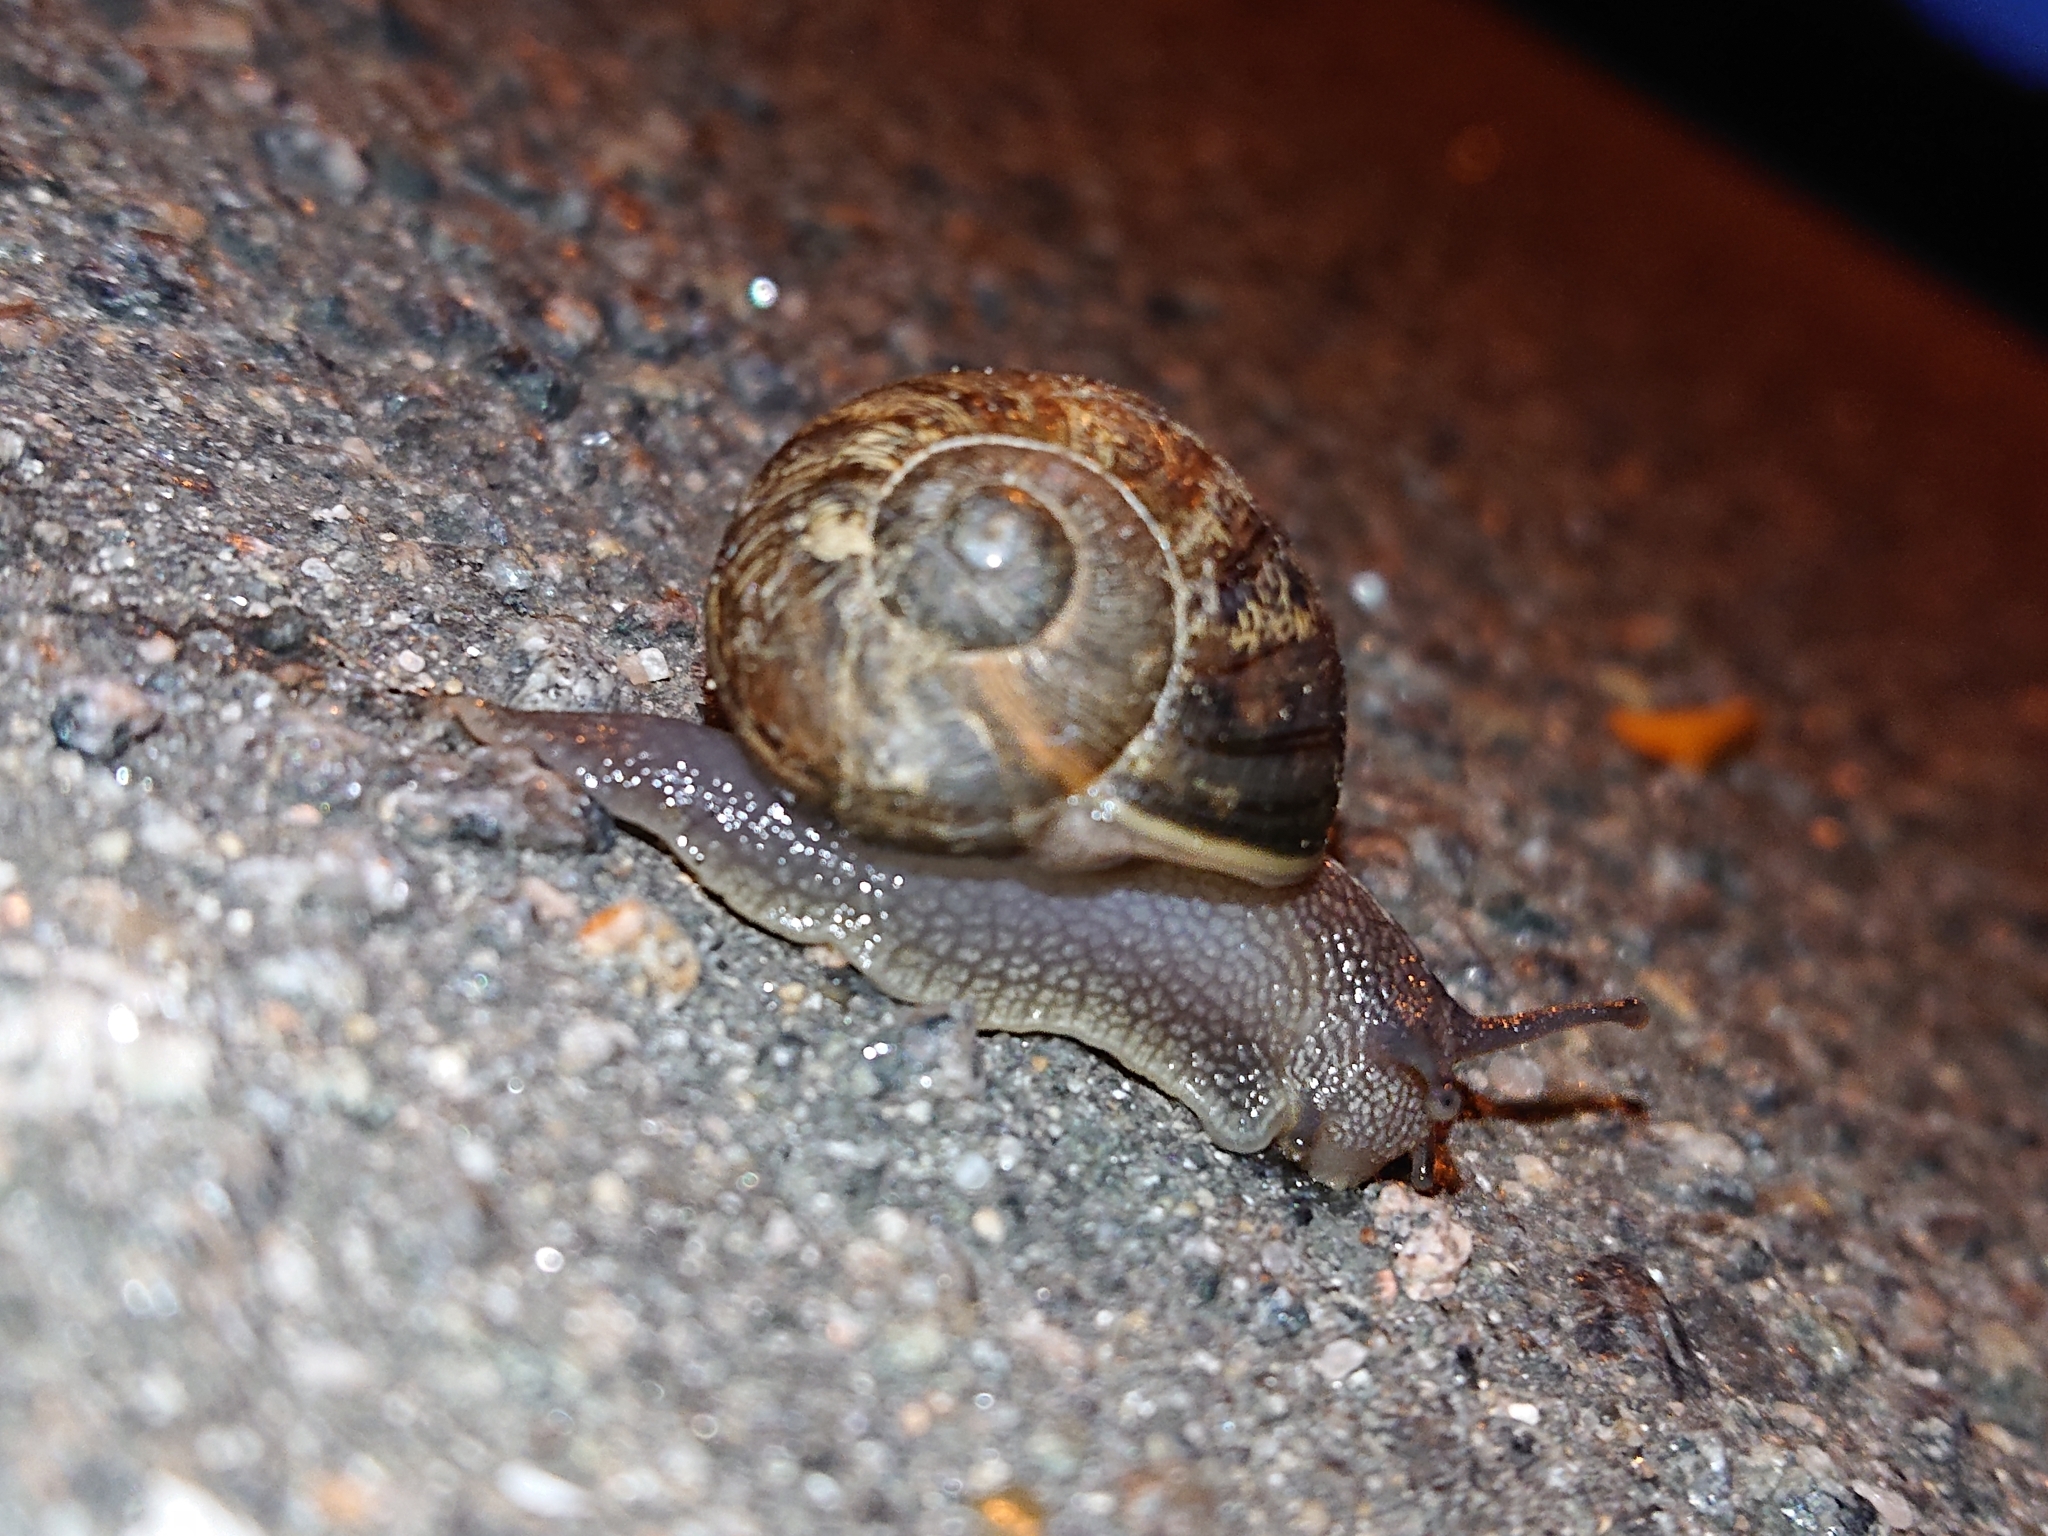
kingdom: Animalia
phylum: Mollusca
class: Gastropoda
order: Stylommatophora
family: Helicidae
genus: Cornu
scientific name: Cornu aspersum
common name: Brown garden snail
